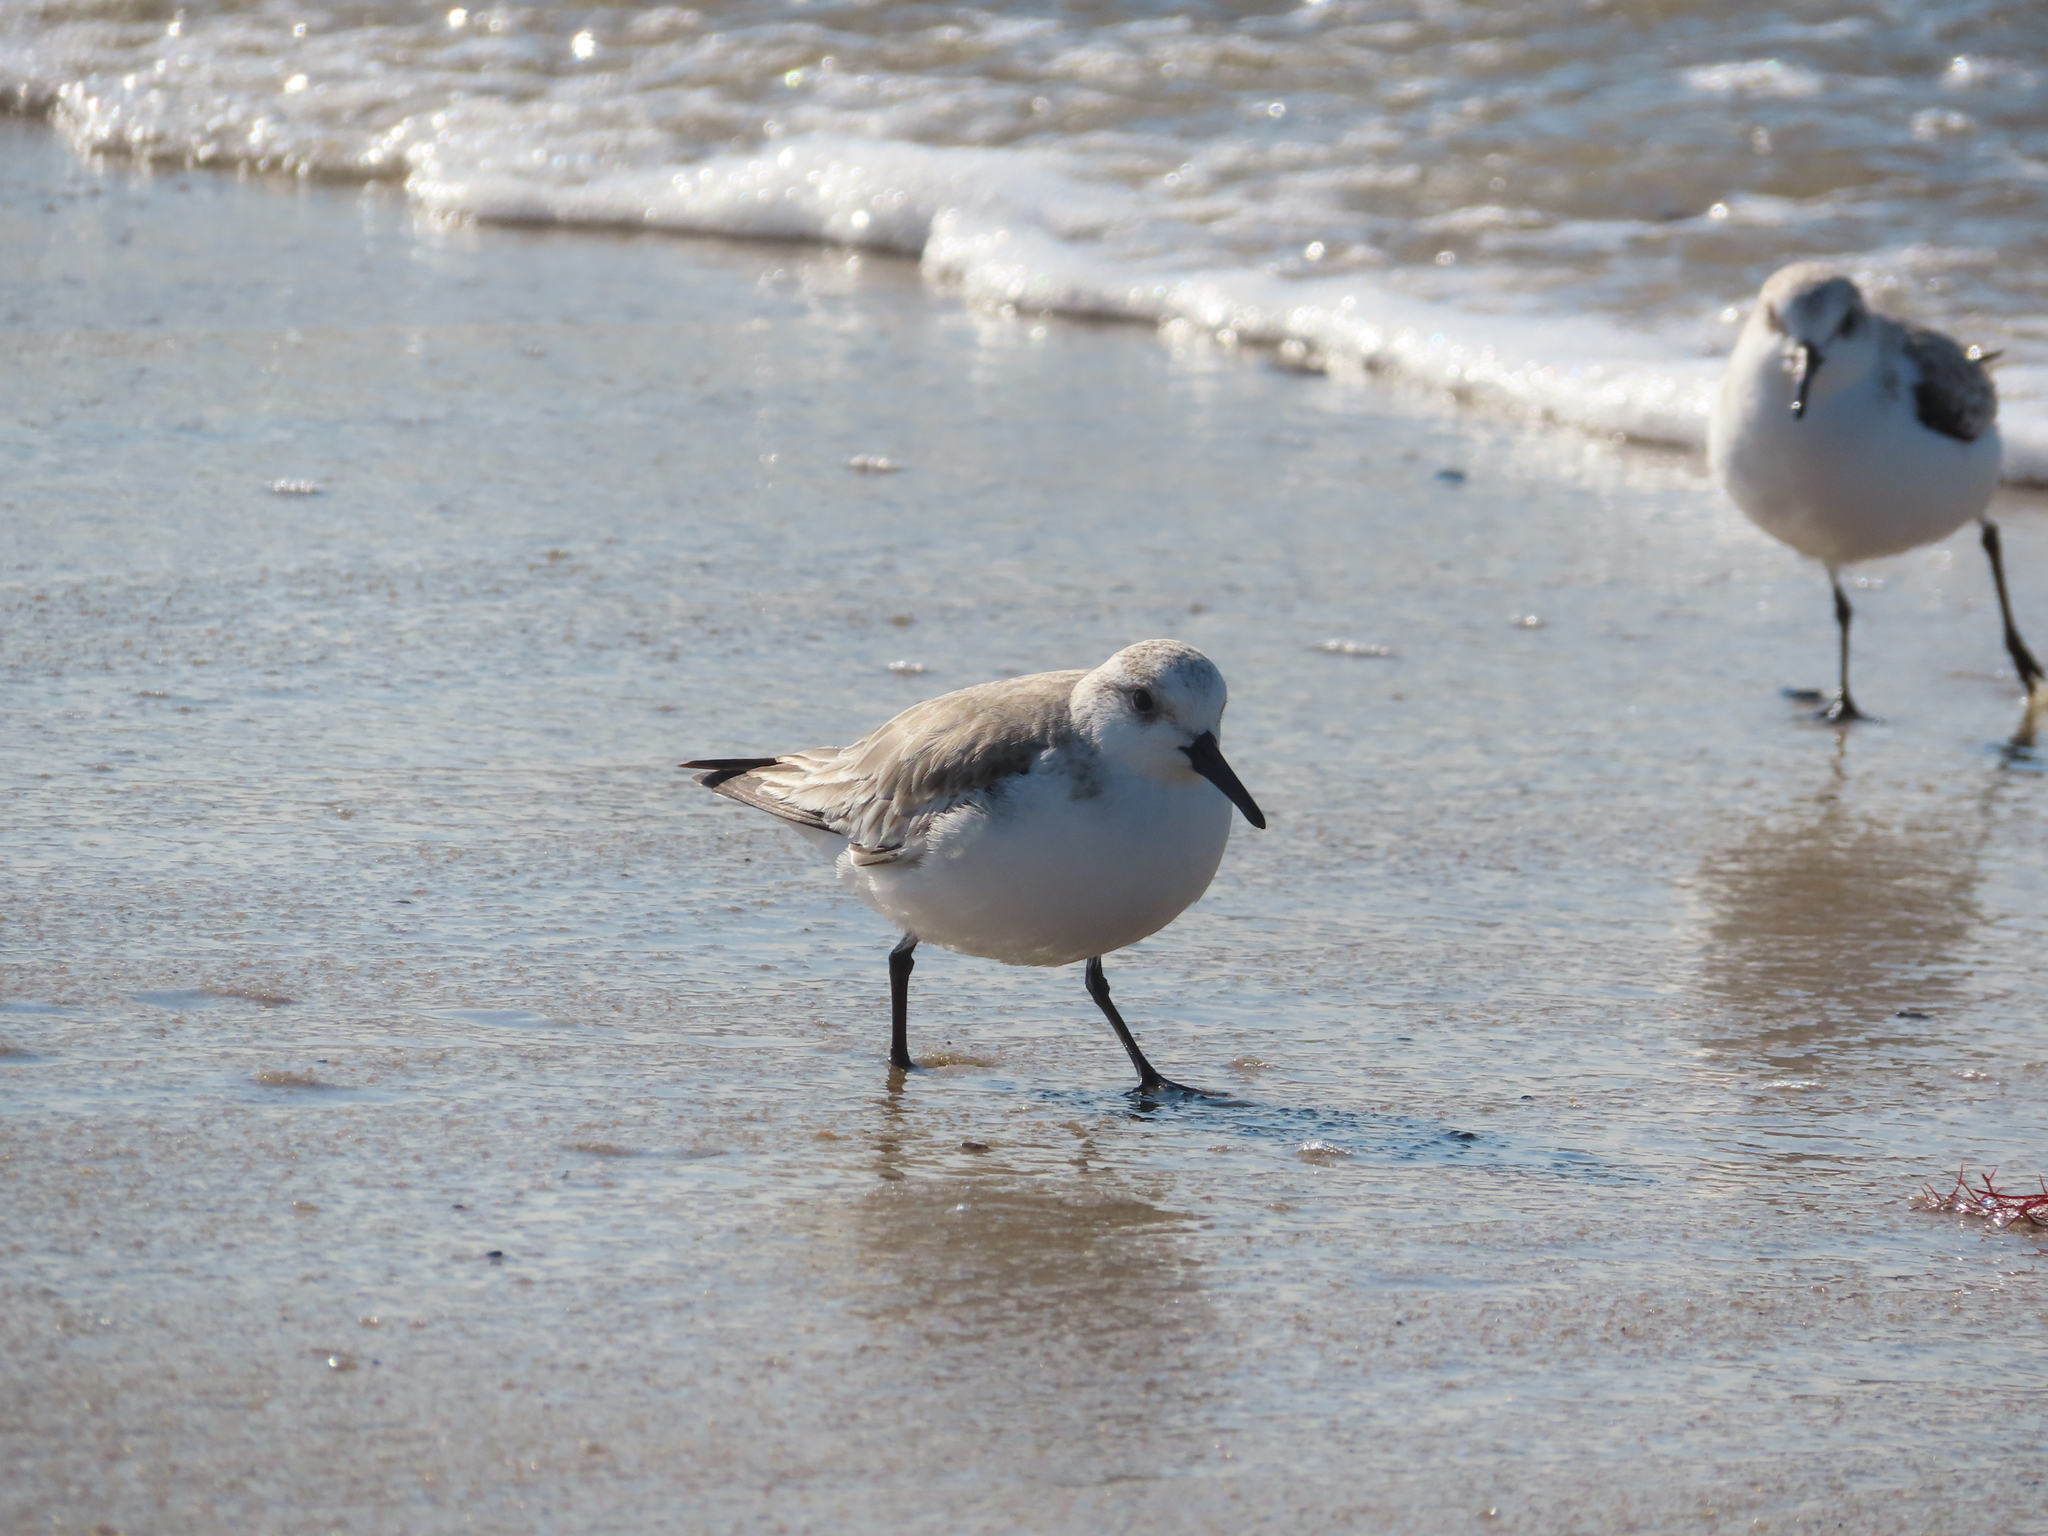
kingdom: Animalia
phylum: Chordata
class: Aves
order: Charadriiformes
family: Scolopacidae
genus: Calidris
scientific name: Calidris alba
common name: Sanderling
